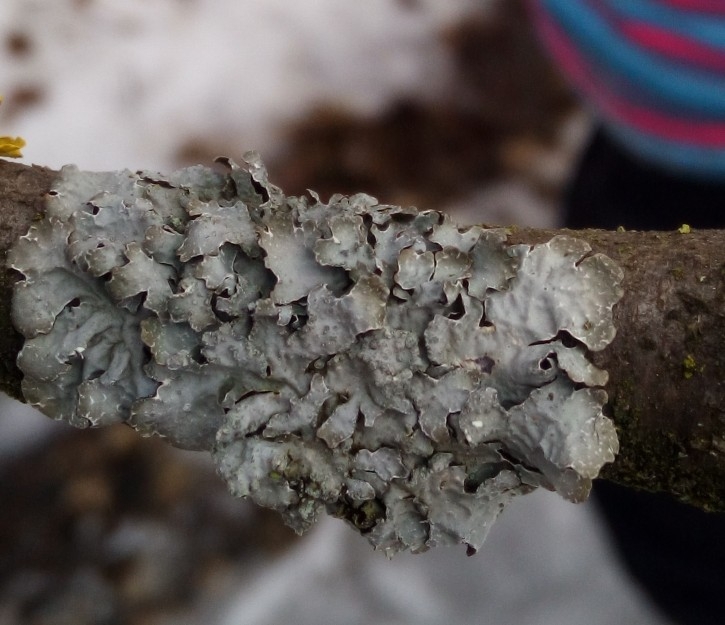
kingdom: Fungi
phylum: Ascomycota
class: Lecanoromycetes
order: Lecanorales
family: Parmeliaceae
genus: Parmelia
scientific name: Parmelia sulcata
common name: Netted shield lichen
